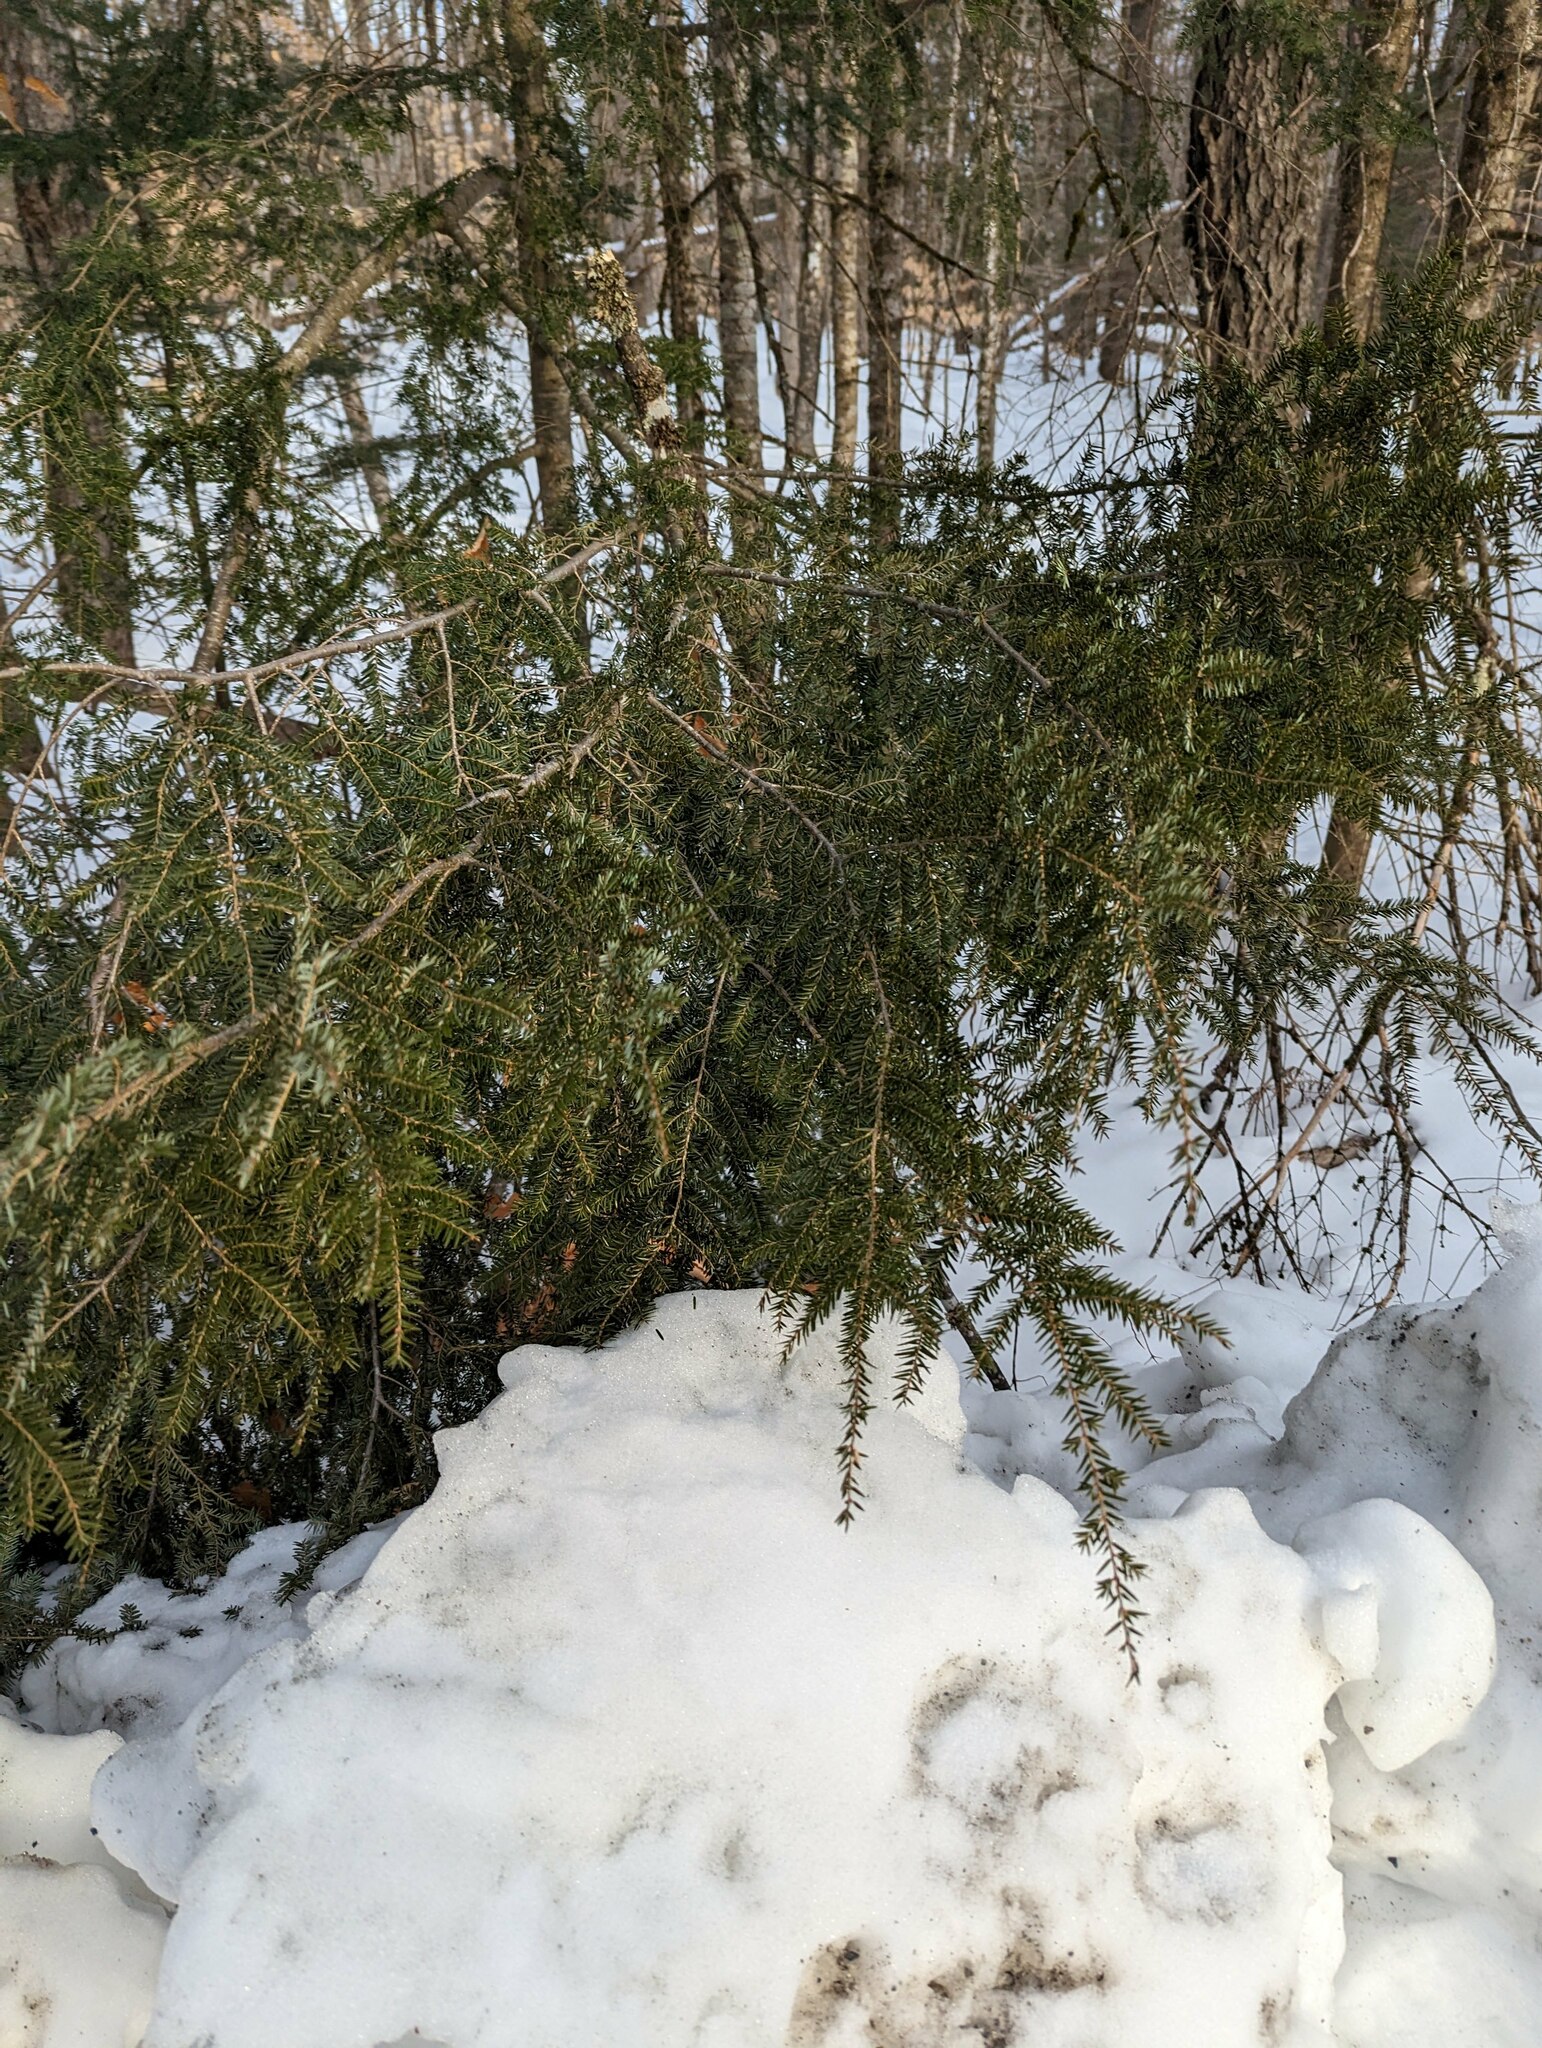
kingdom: Plantae
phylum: Tracheophyta
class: Pinopsida
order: Pinales
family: Pinaceae
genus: Tsuga
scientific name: Tsuga canadensis
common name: Eastern hemlock
